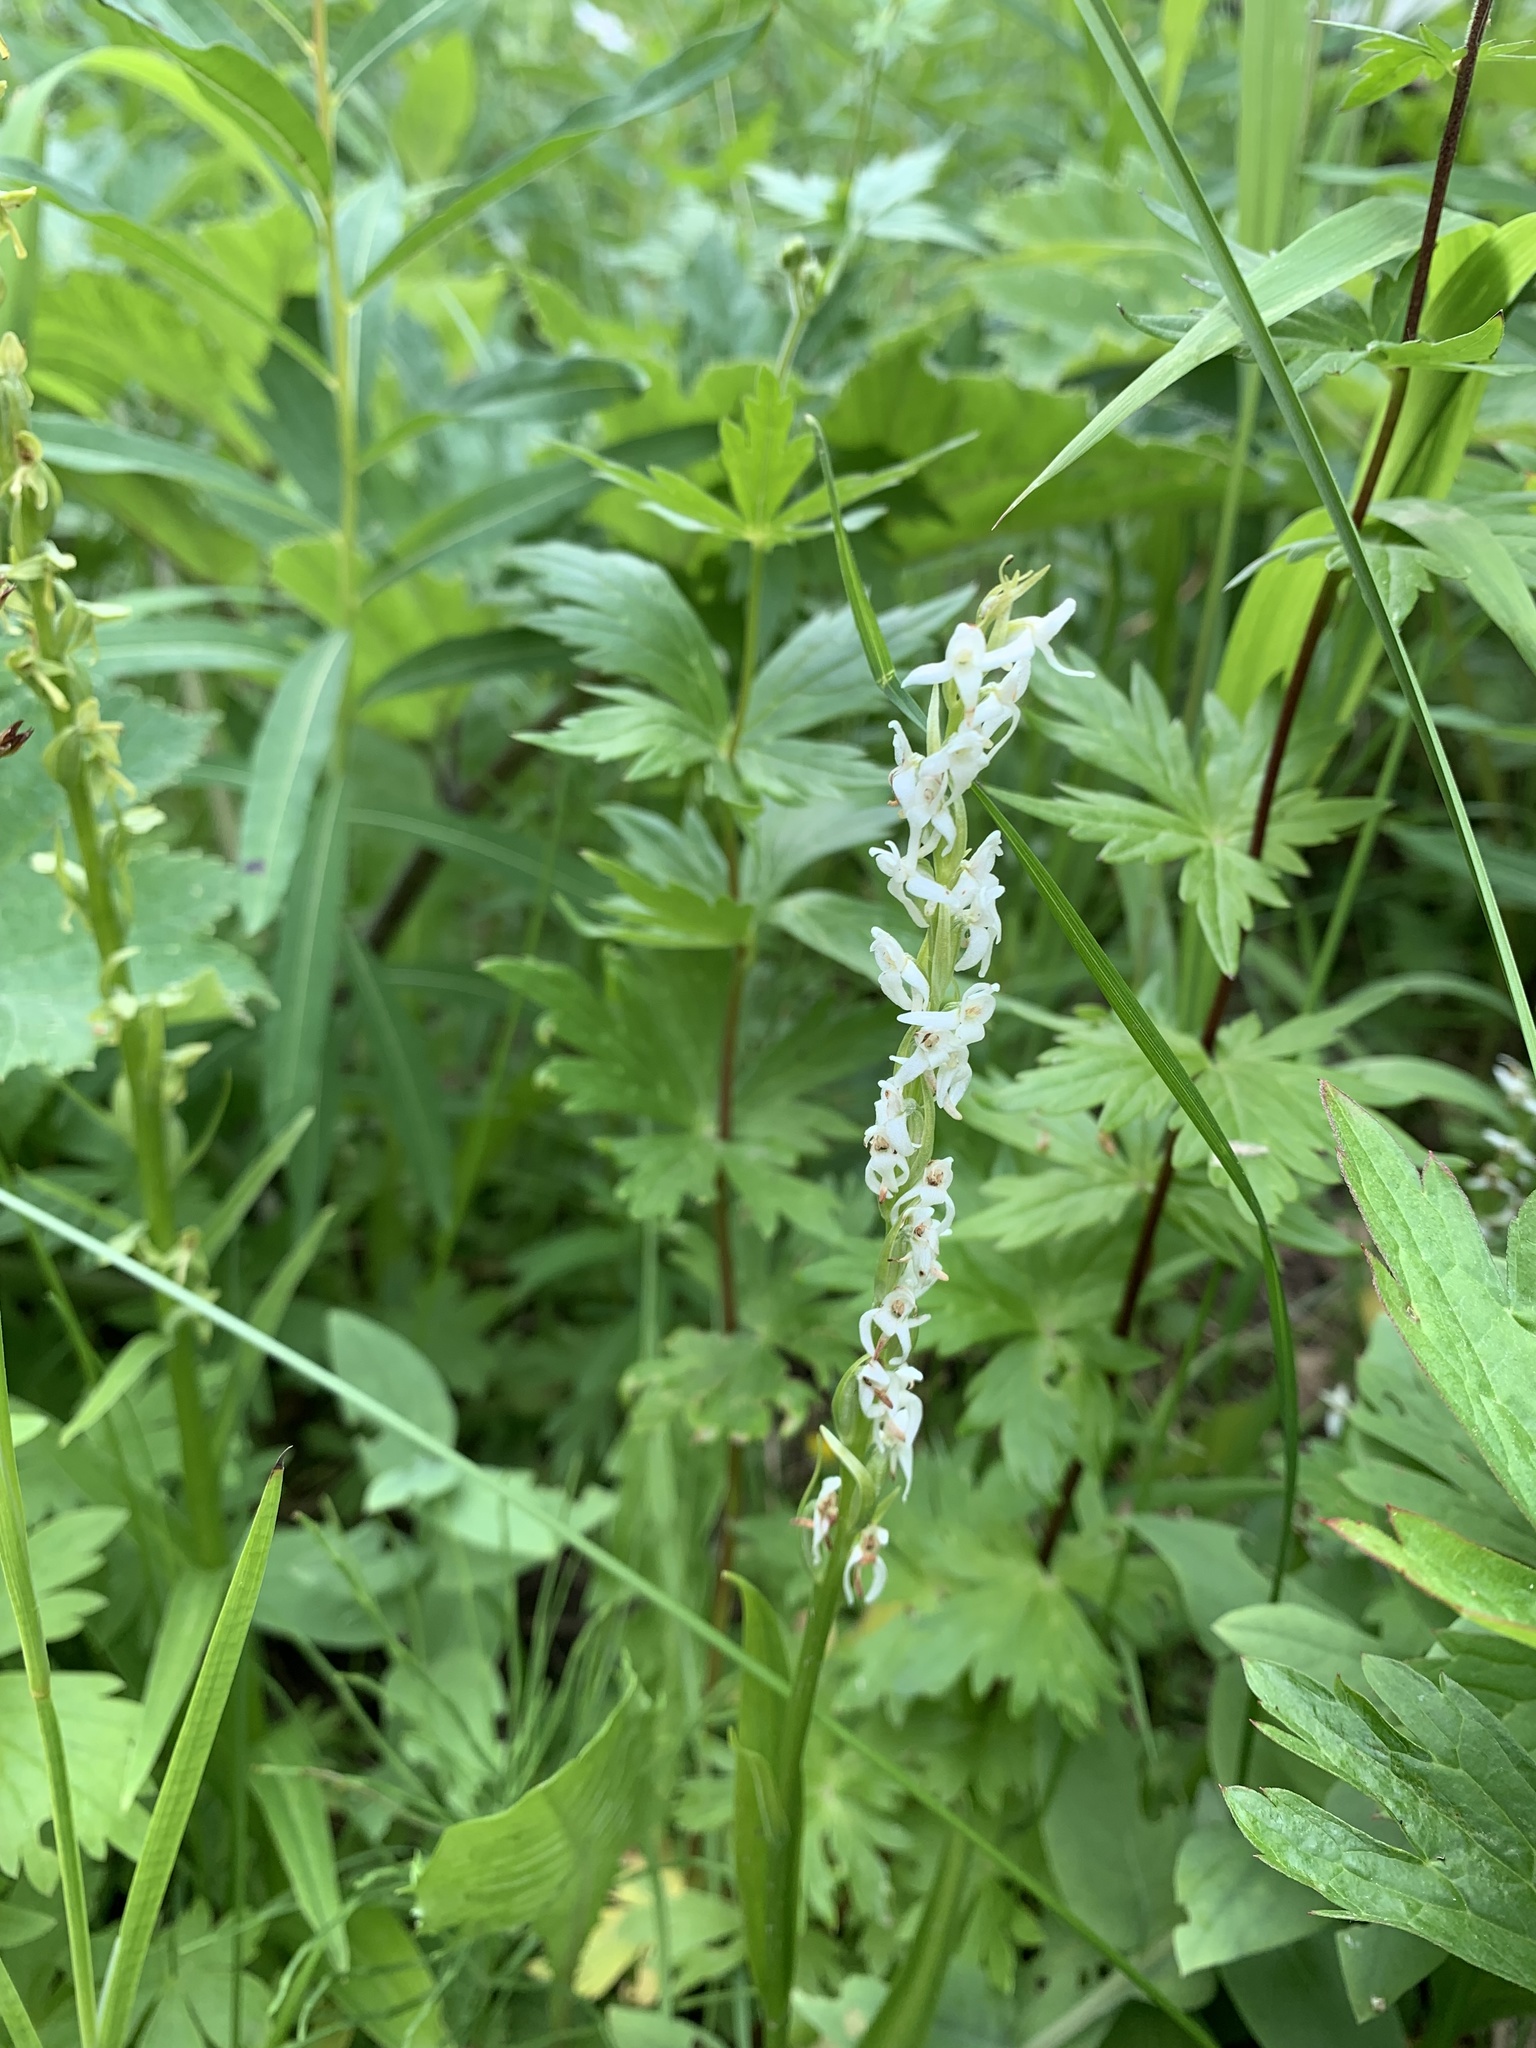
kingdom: Plantae
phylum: Tracheophyta
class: Liliopsida
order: Asparagales
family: Orchidaceae
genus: Platanthera
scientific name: Platanthera dilatata
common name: Bog candles
